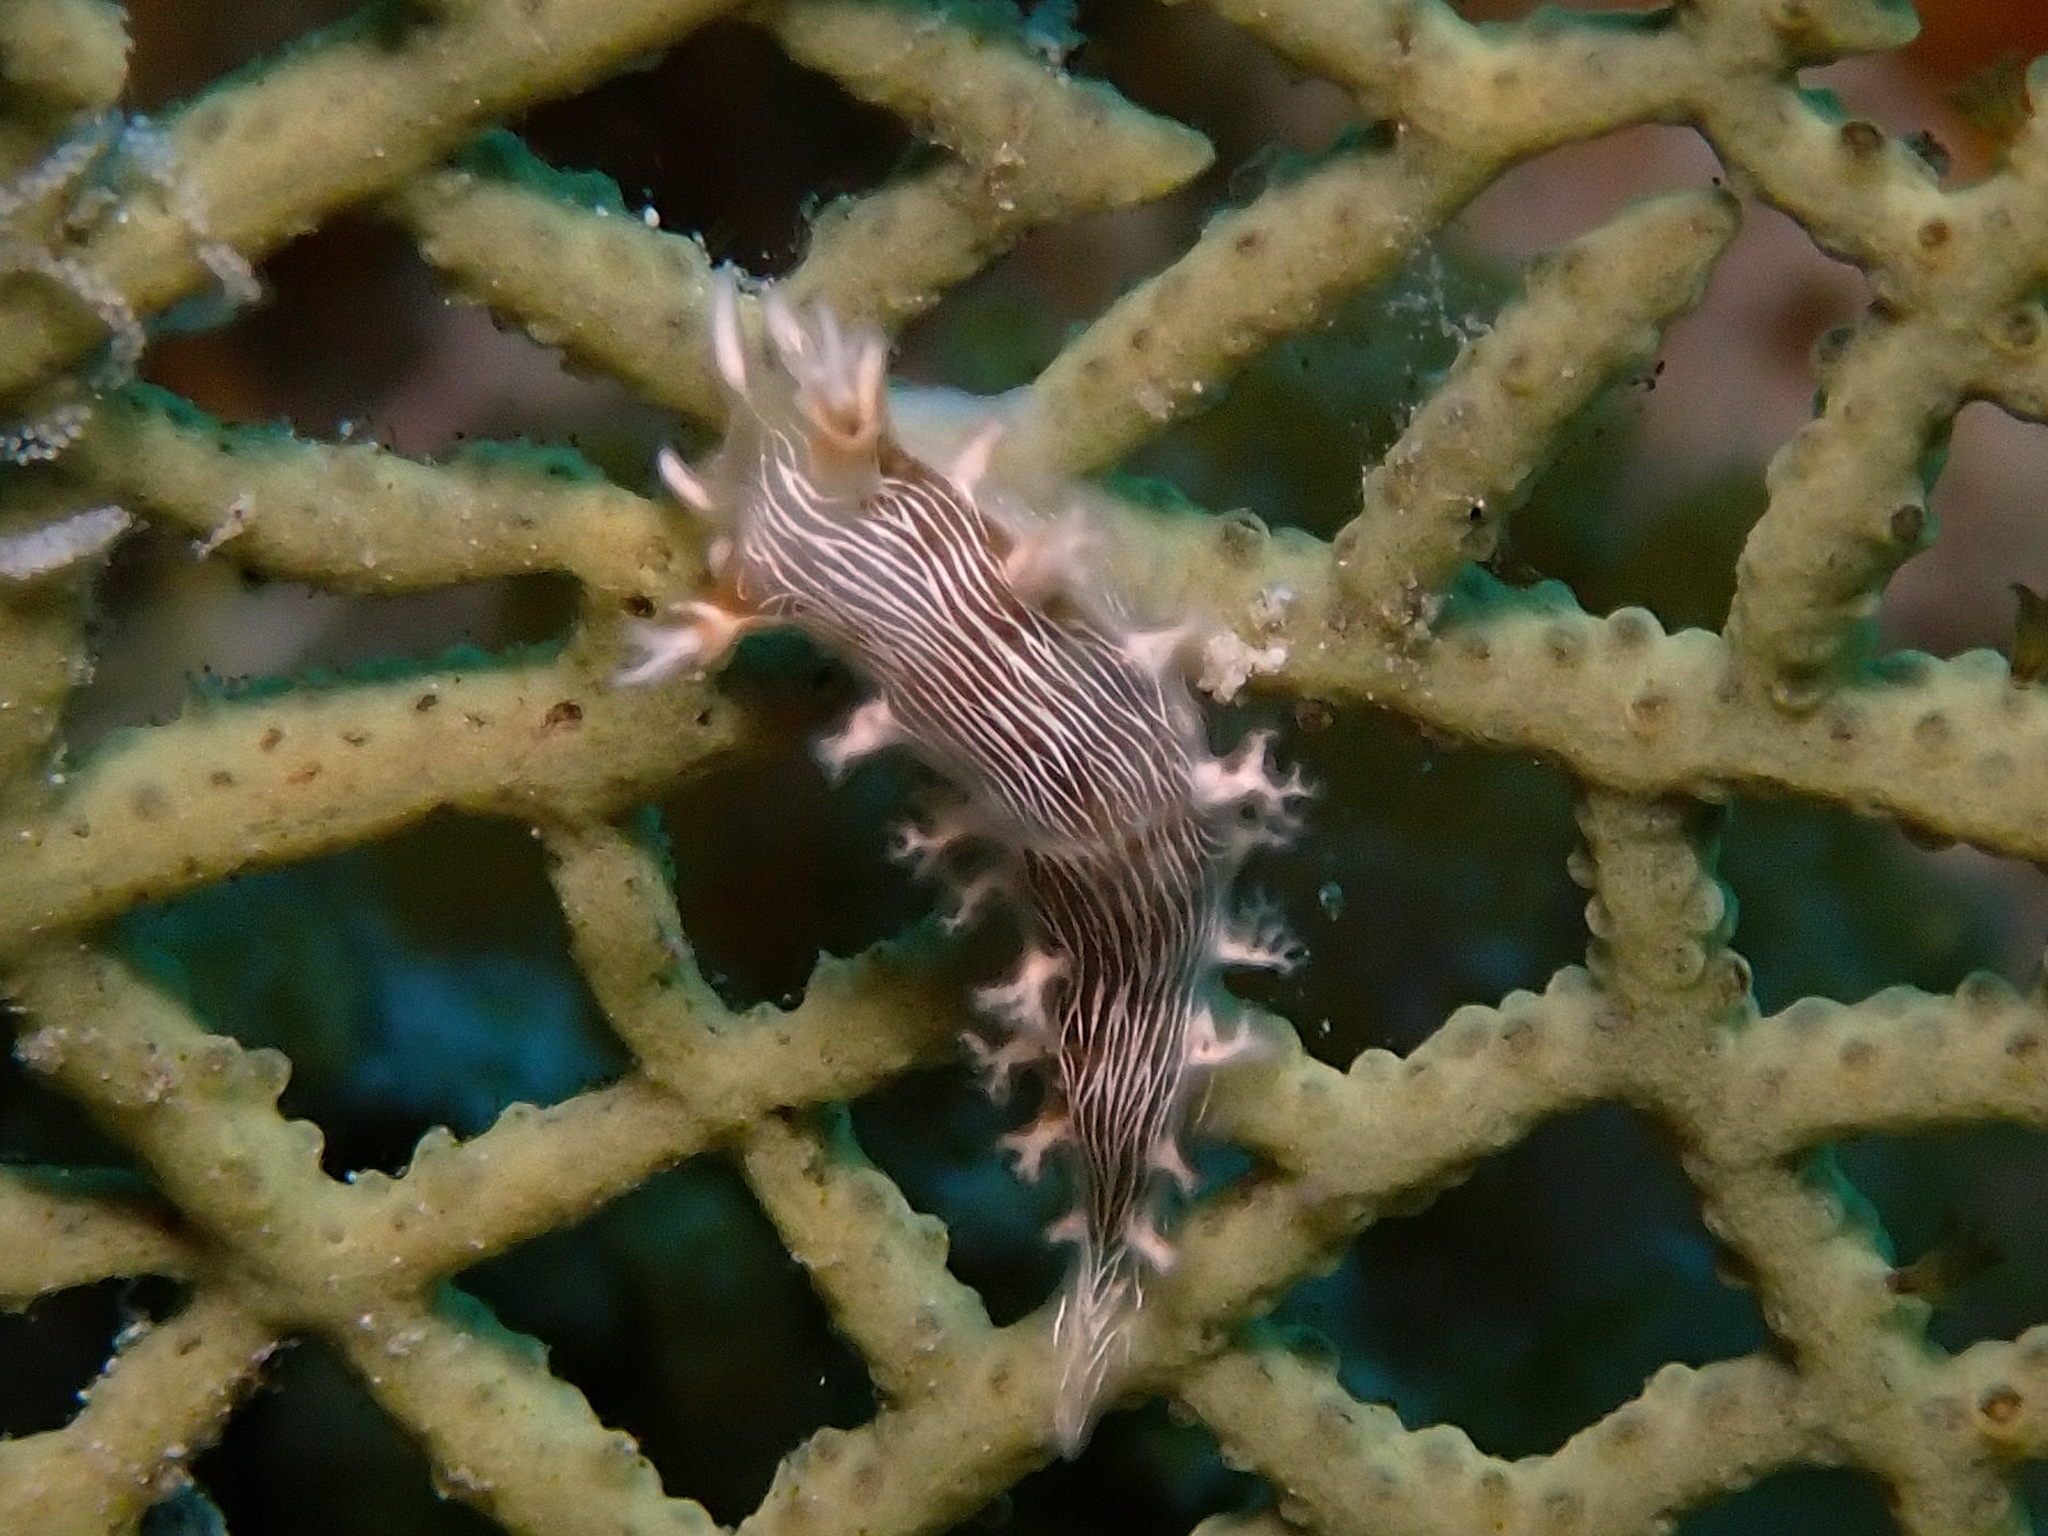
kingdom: Animalia
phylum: Mollusca
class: Gastropoda
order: Nudibranchia
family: Tritoniidae
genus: Tritonicula
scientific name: Tritonicula hamnerorum
